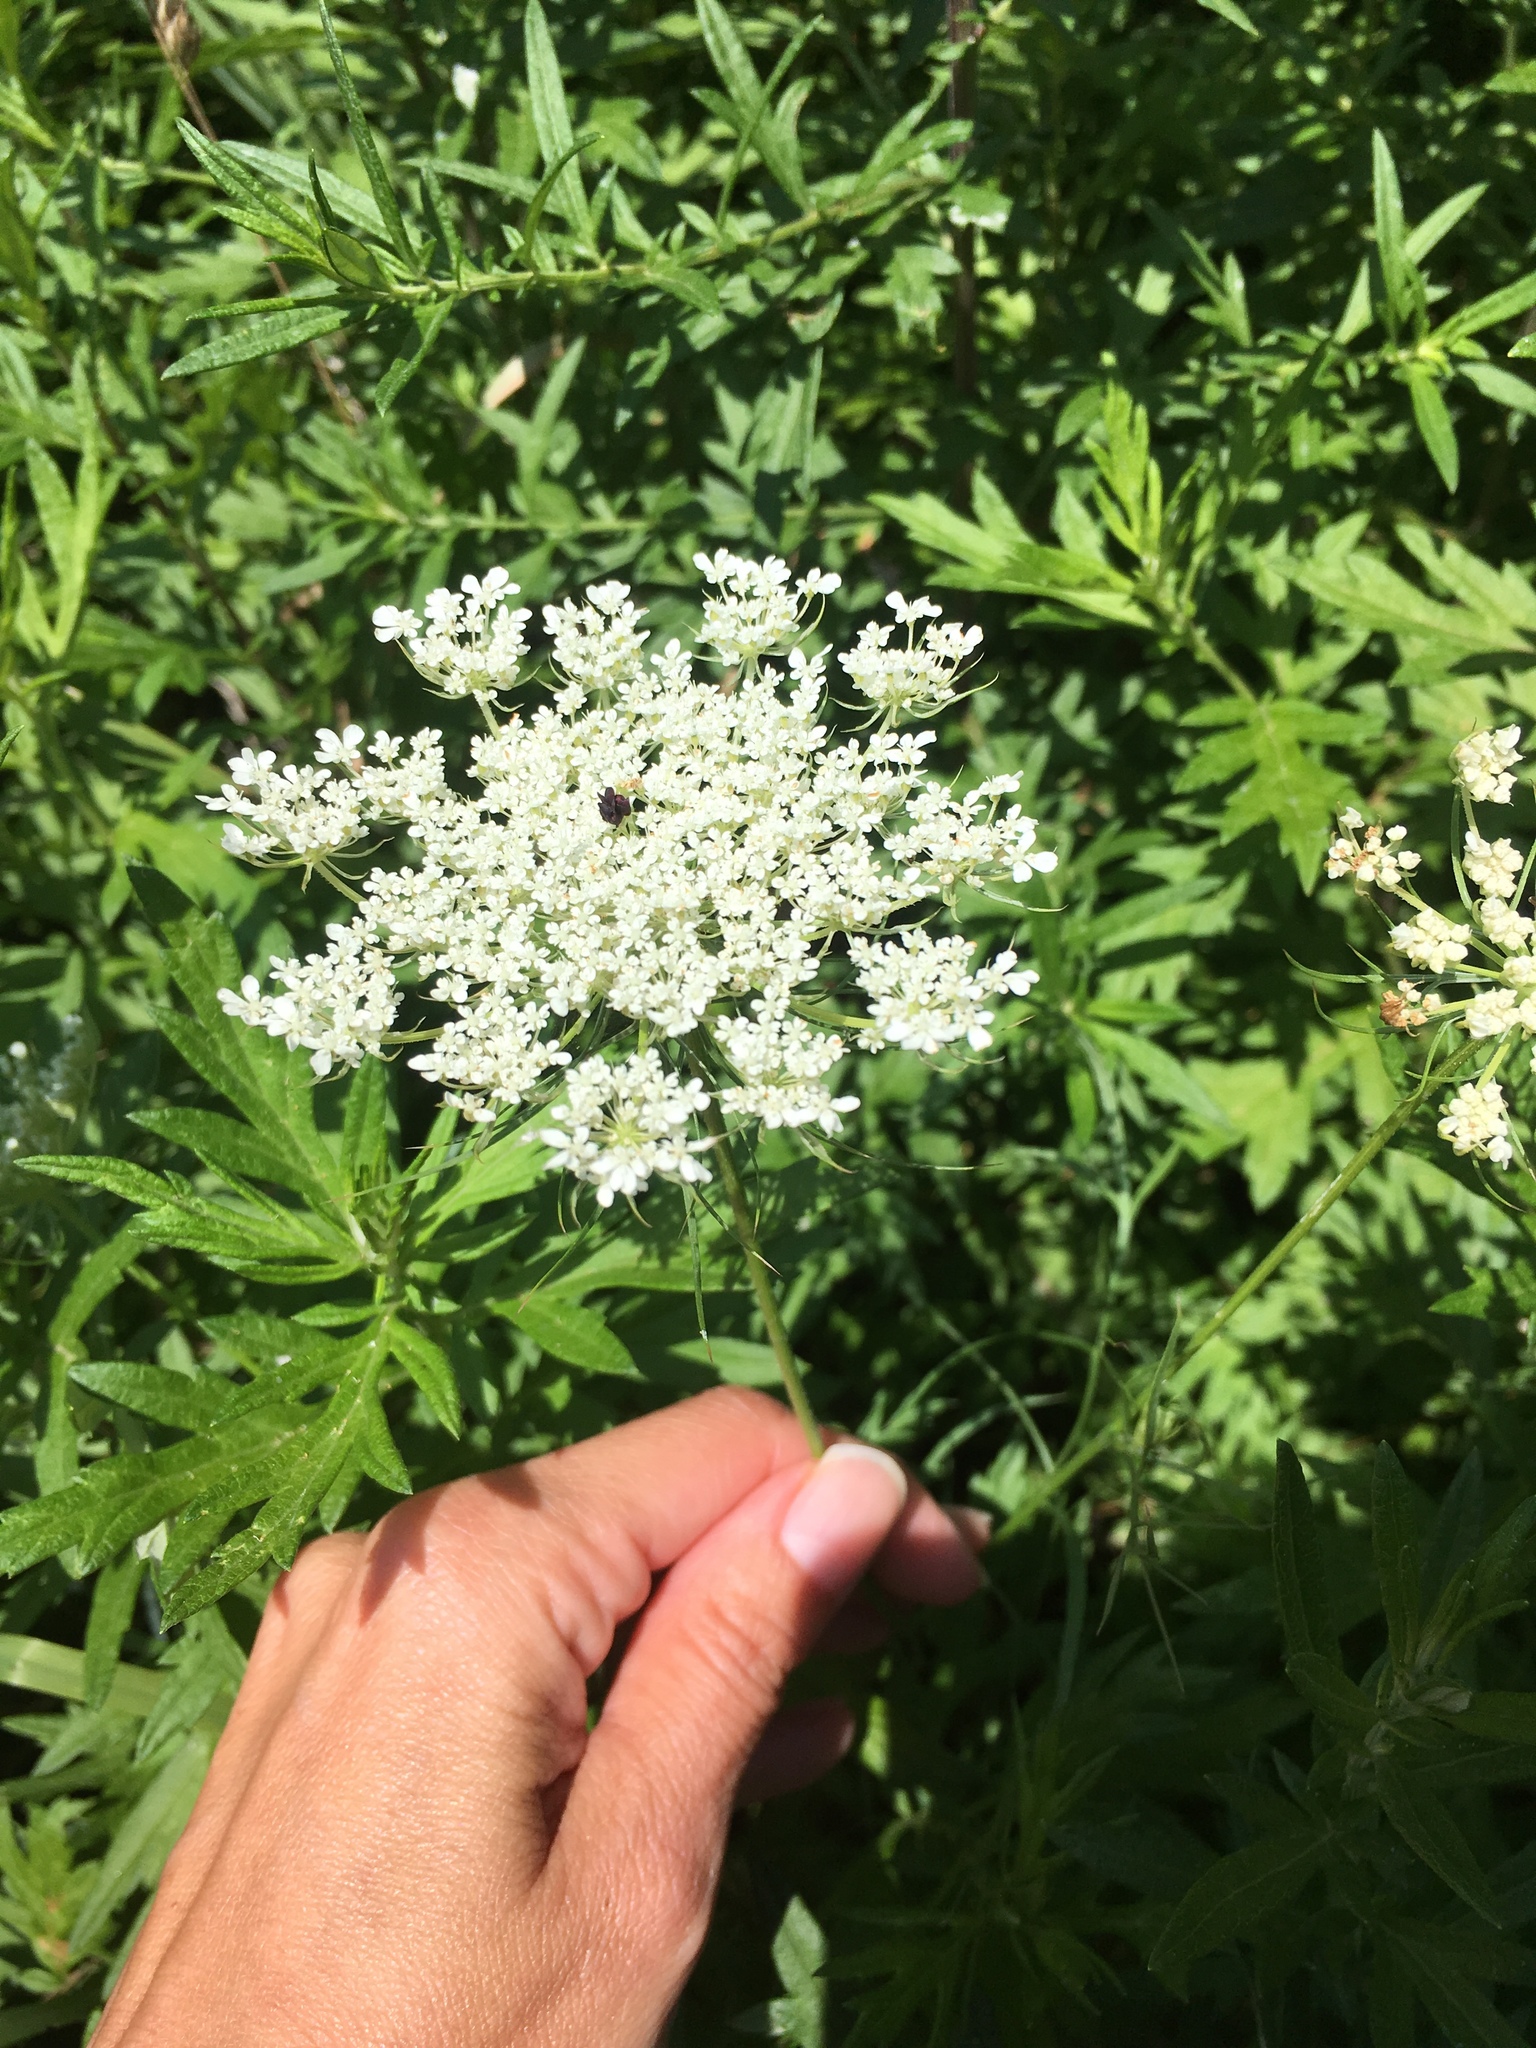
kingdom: Plantae
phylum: Tracheophyta
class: Magnoliopsida
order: Apiales
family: Apiaceae
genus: Daucus
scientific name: Daucus carota
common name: Wild carrot
